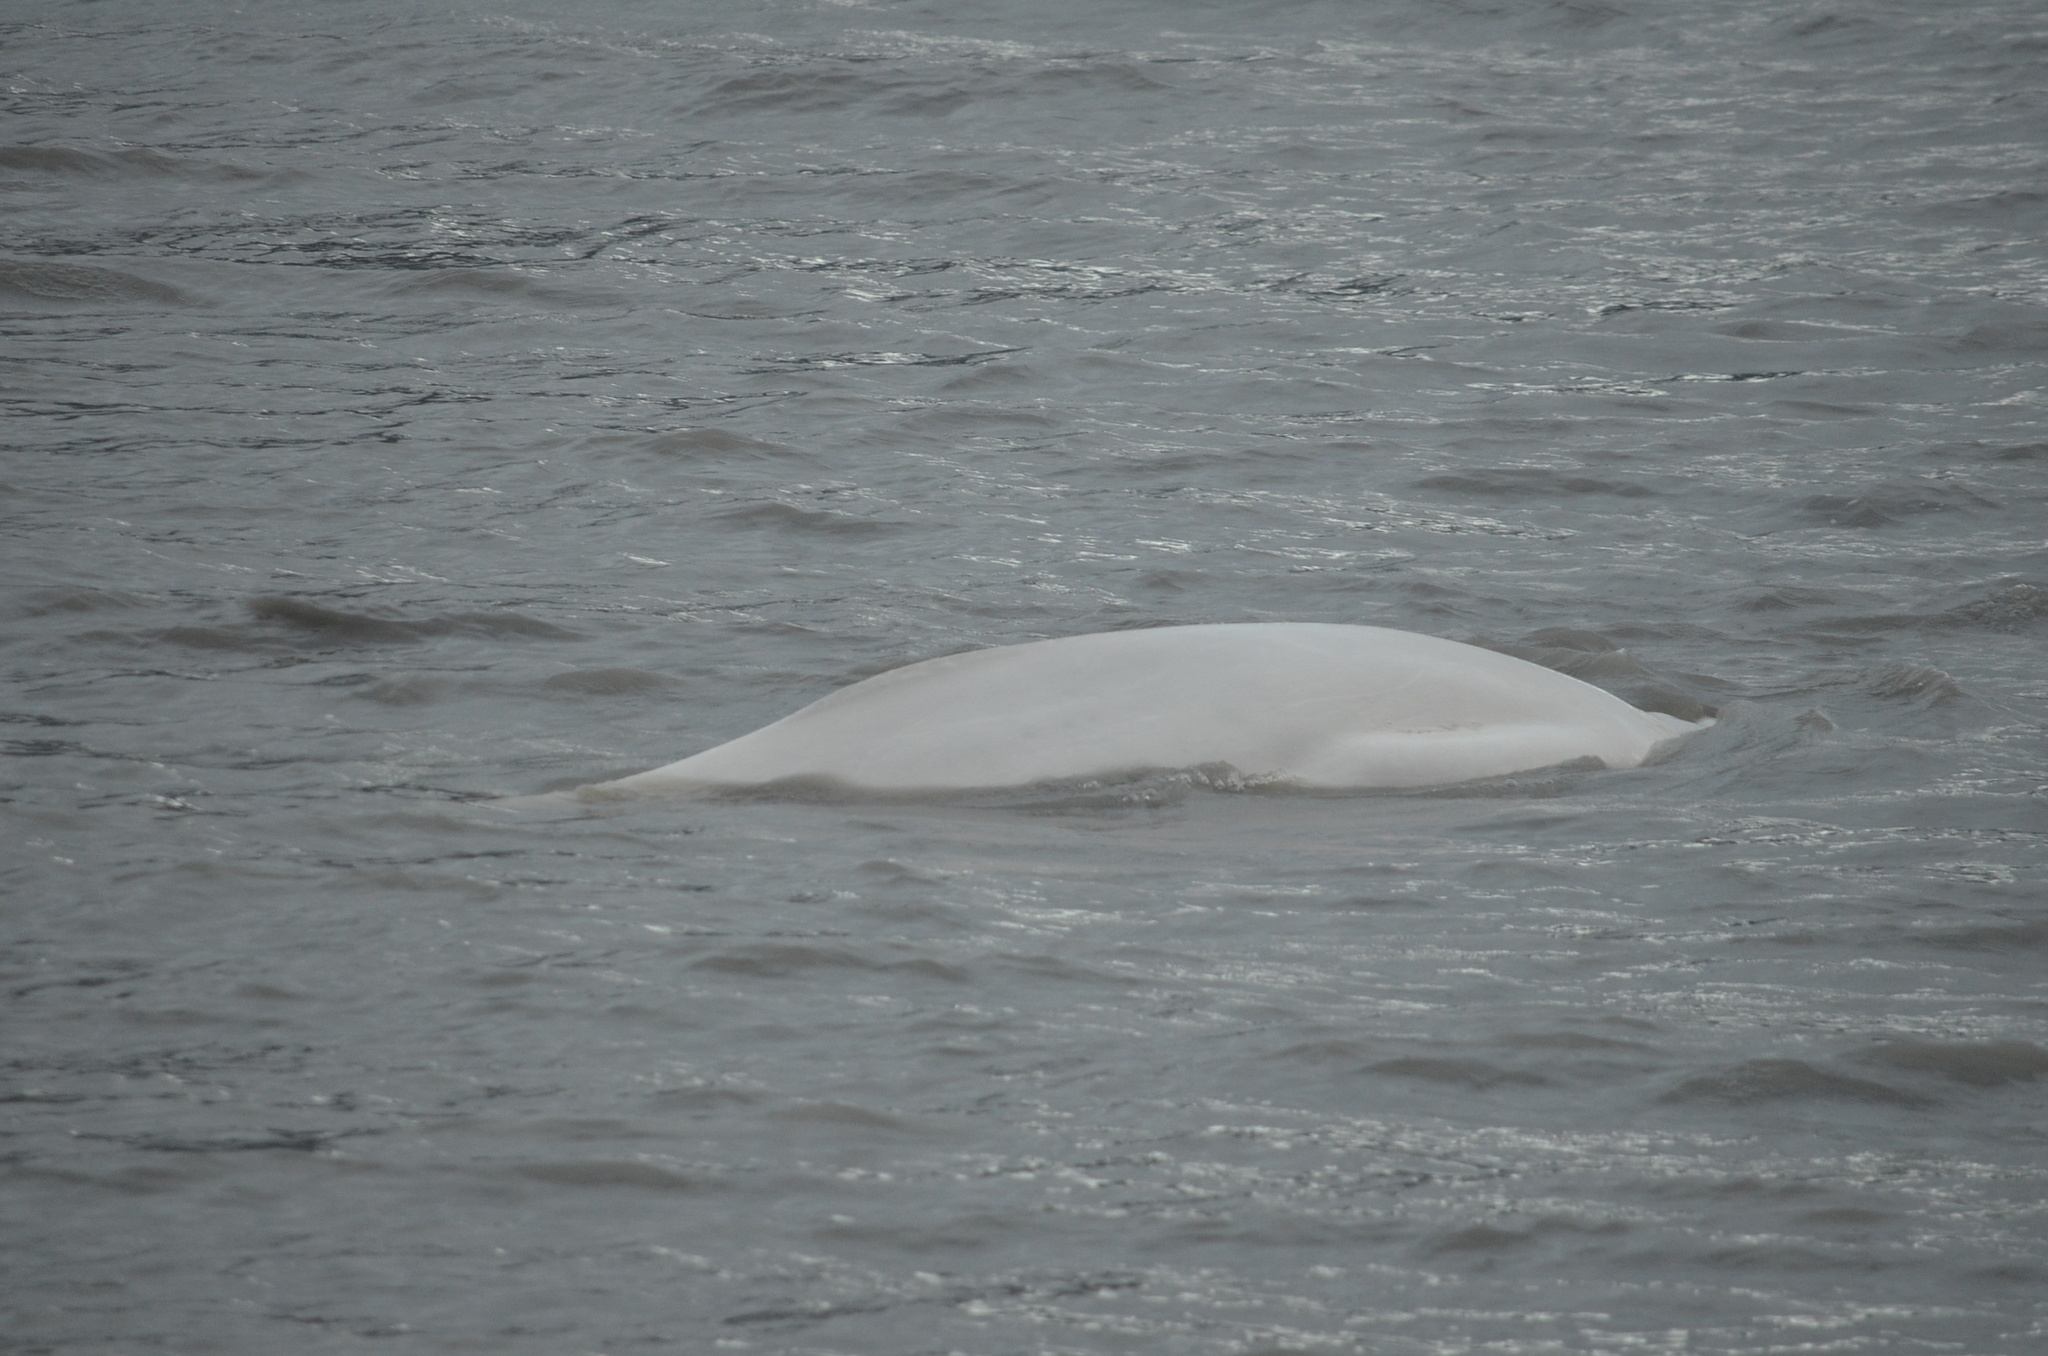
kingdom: Animalia
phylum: Chordata
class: Mammalia
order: Cetacea
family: Monodontidae
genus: Delphinapterus
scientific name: Delphinapterus leucas
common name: Beluga
